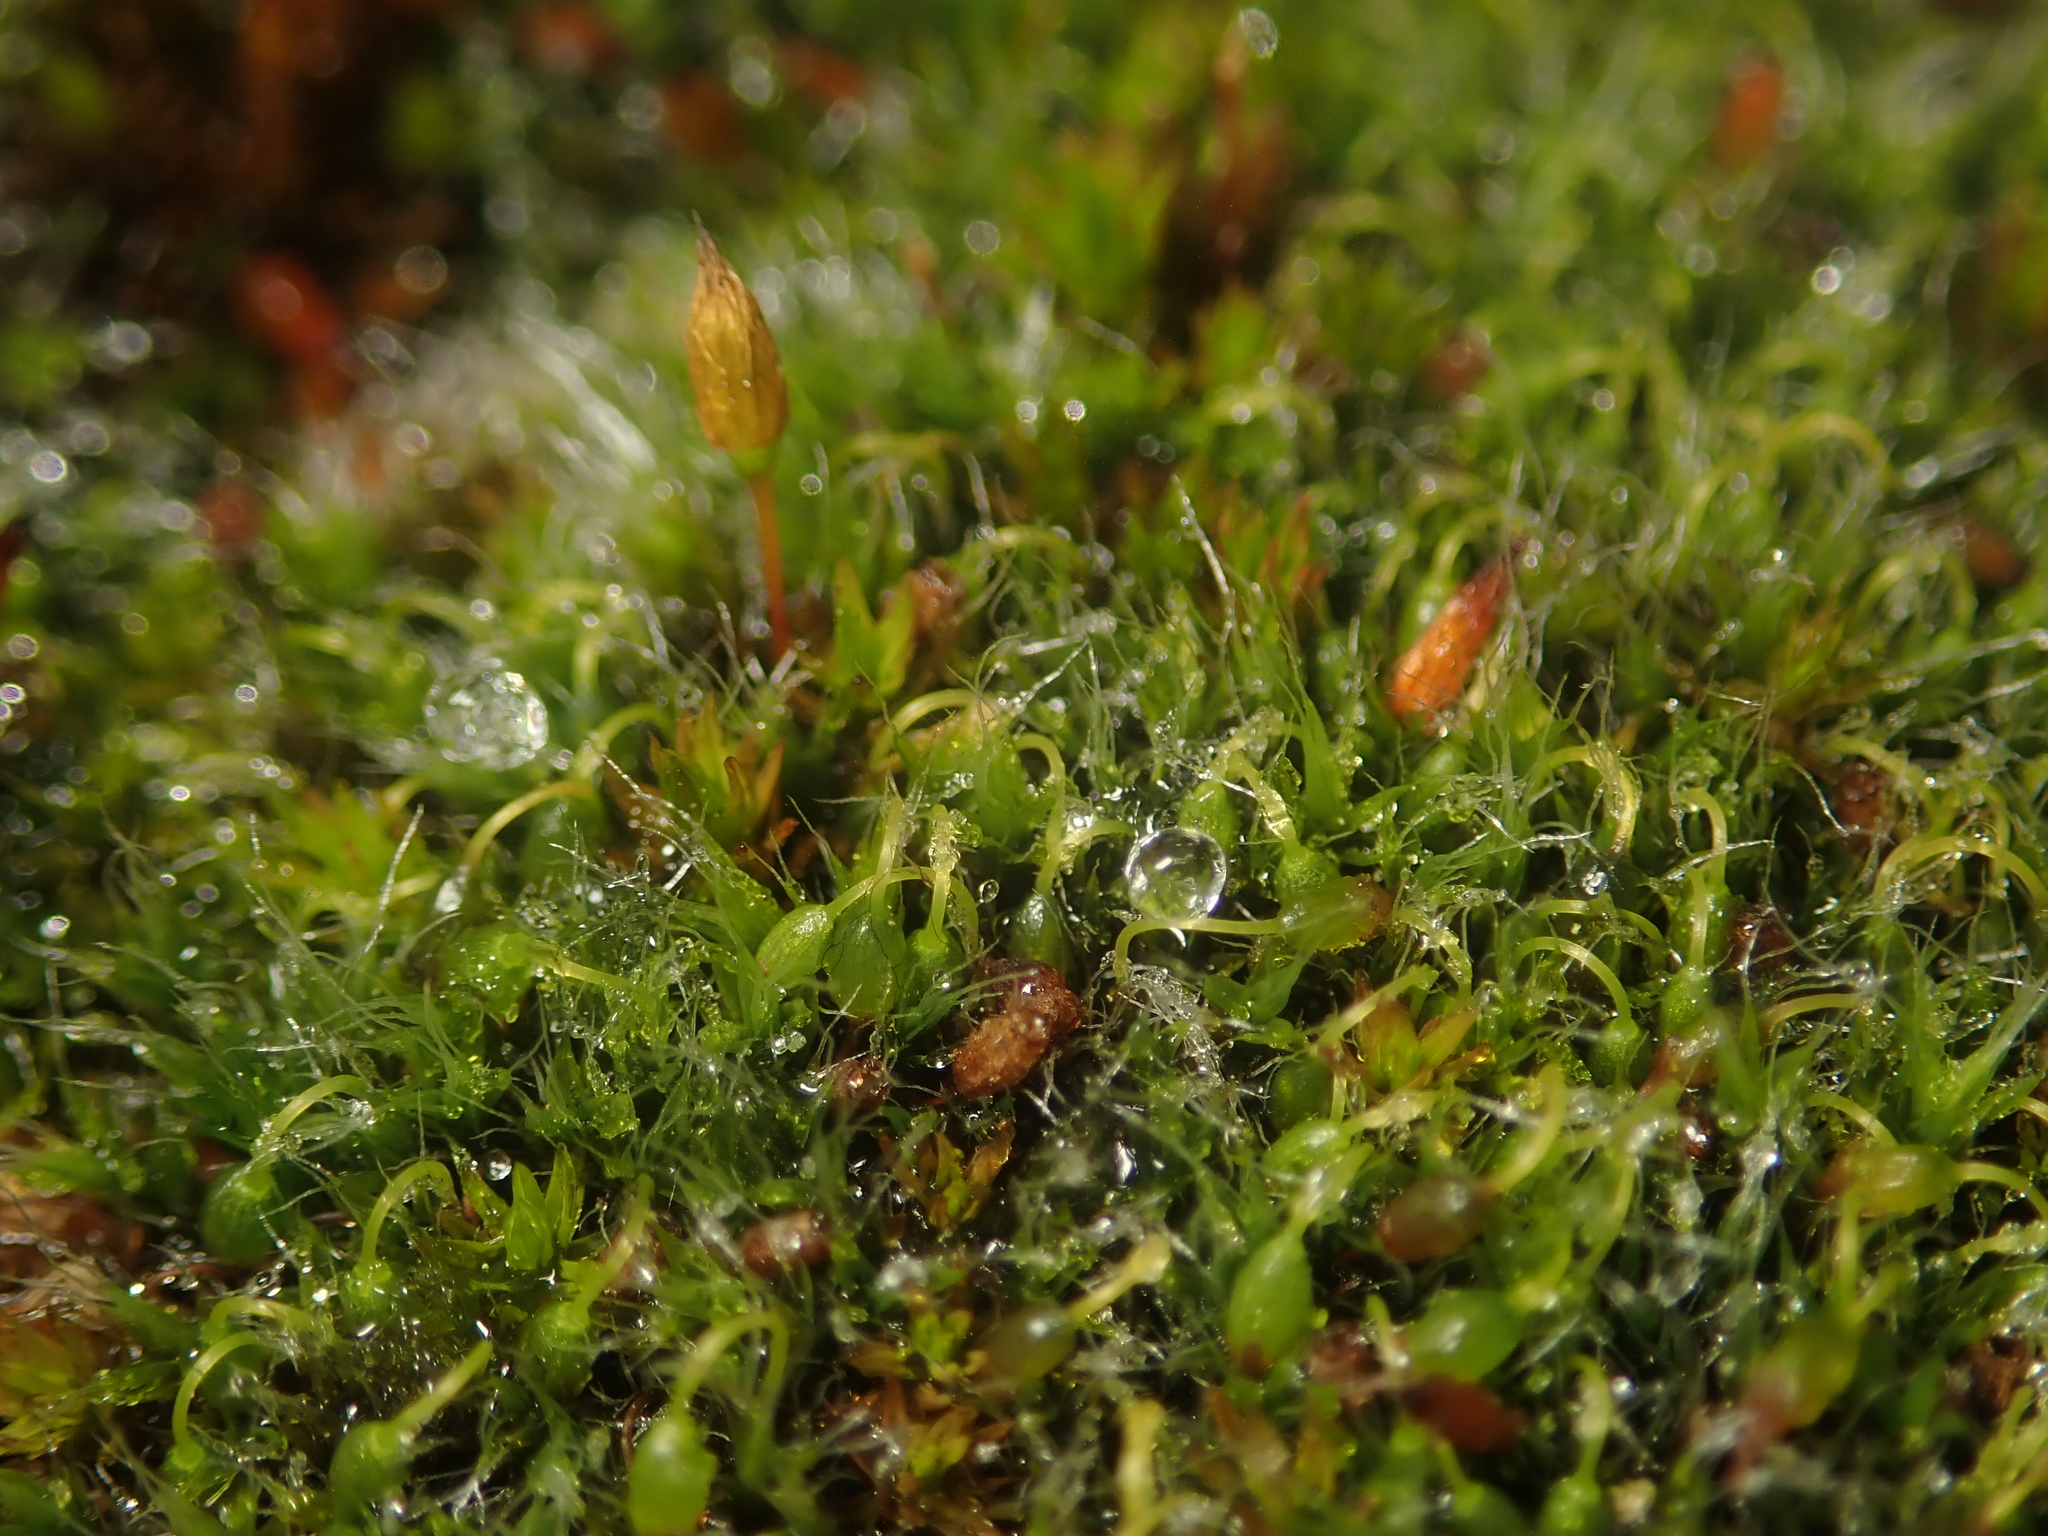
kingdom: Plantae
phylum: Bryophyta
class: Bryopsida
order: Grimmiales
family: Grimmiaceae
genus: Grimmia
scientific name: Grimmia pulvinata
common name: Grey-cushioned grimmia
